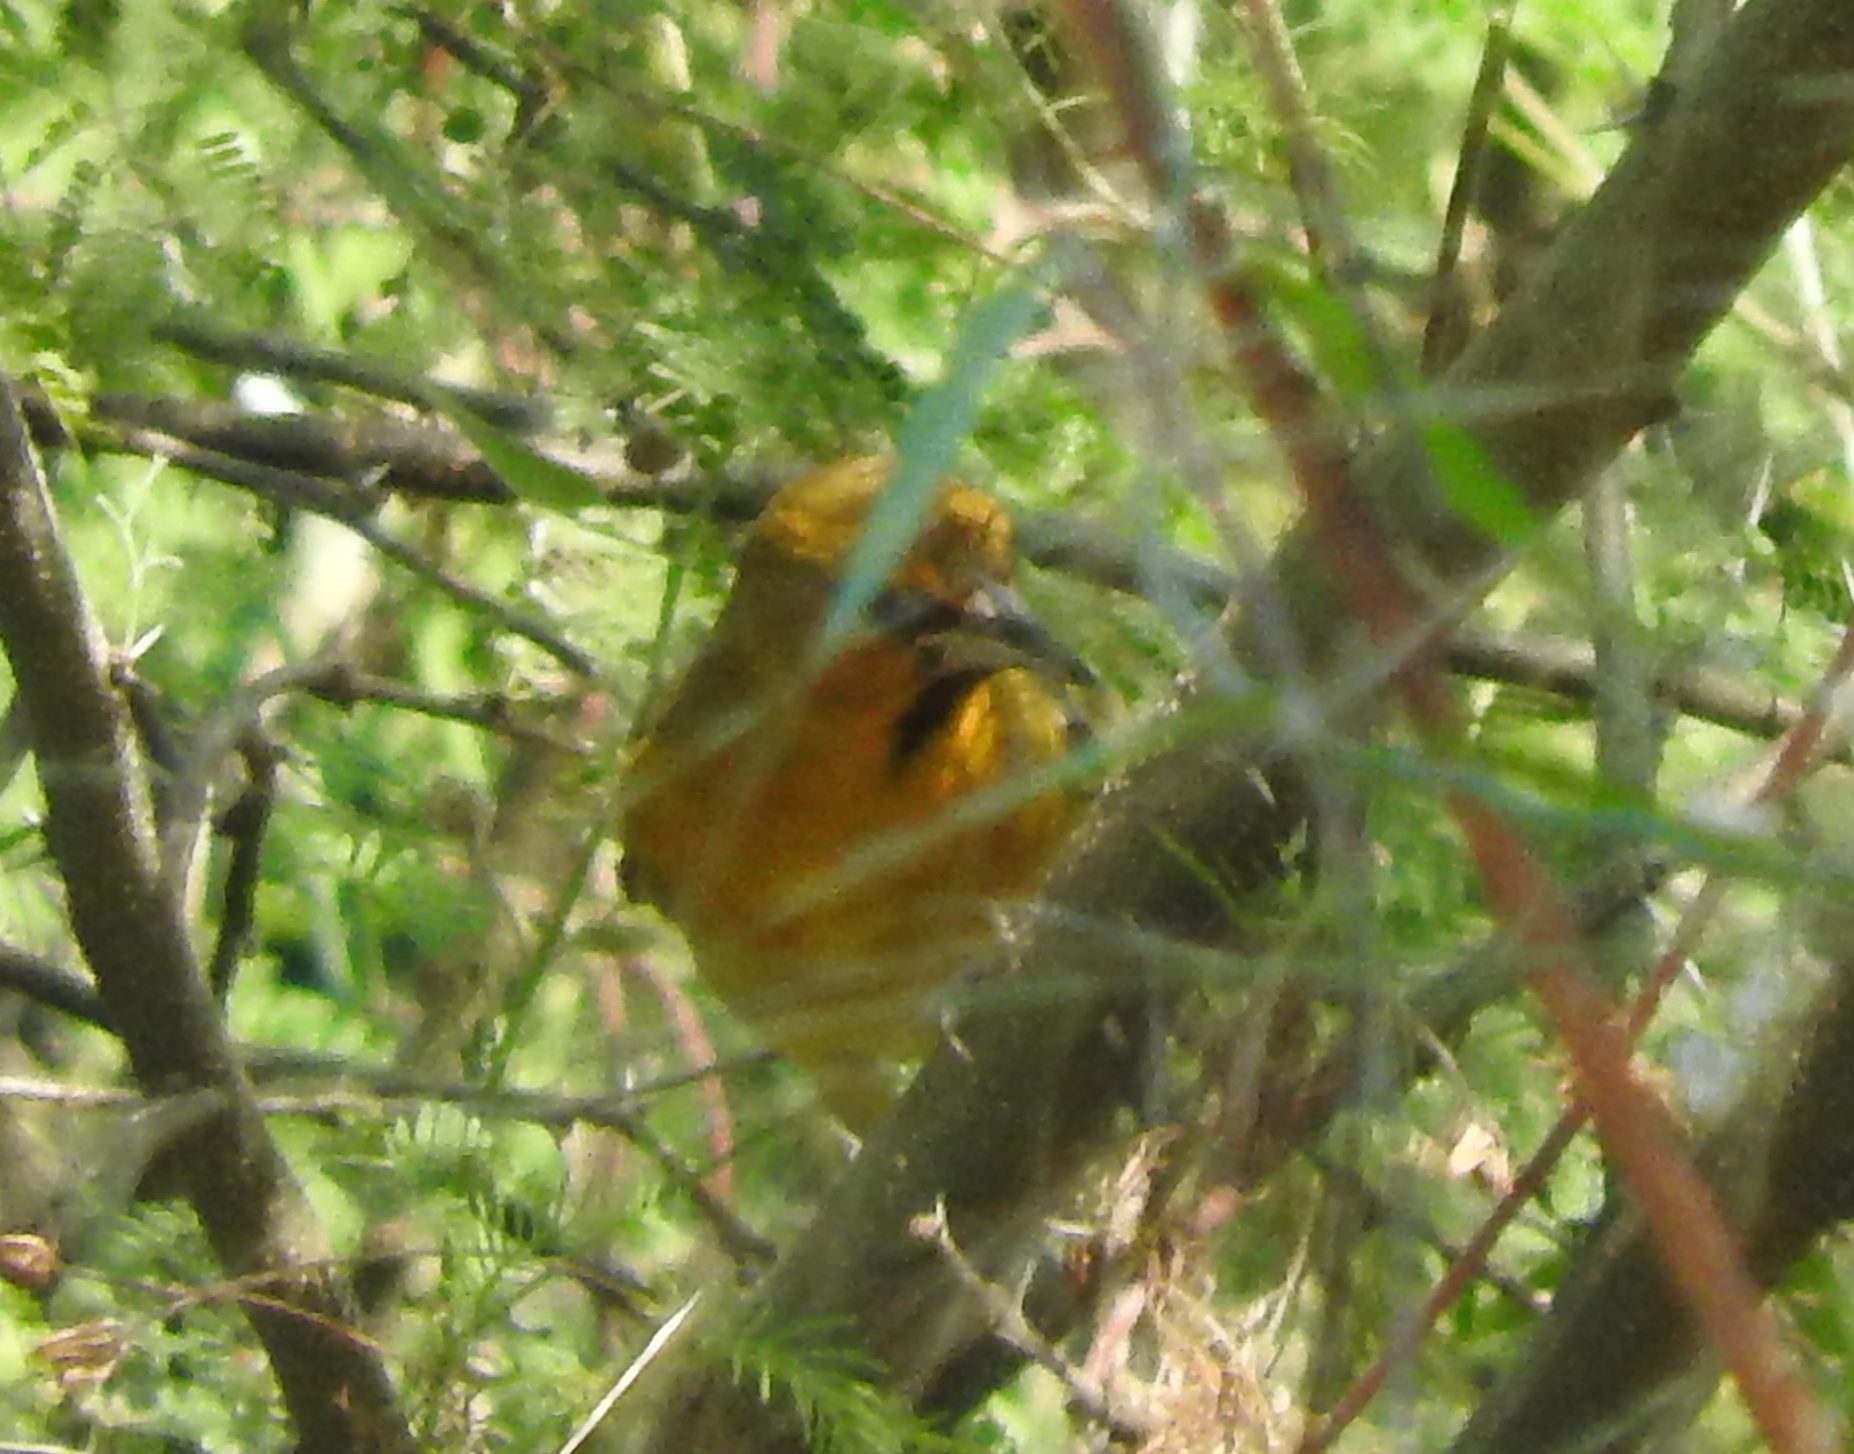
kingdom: Animalia
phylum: Chordata
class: Aves
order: Passeriformes
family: Icteridae
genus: Icterus
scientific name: Icterus
